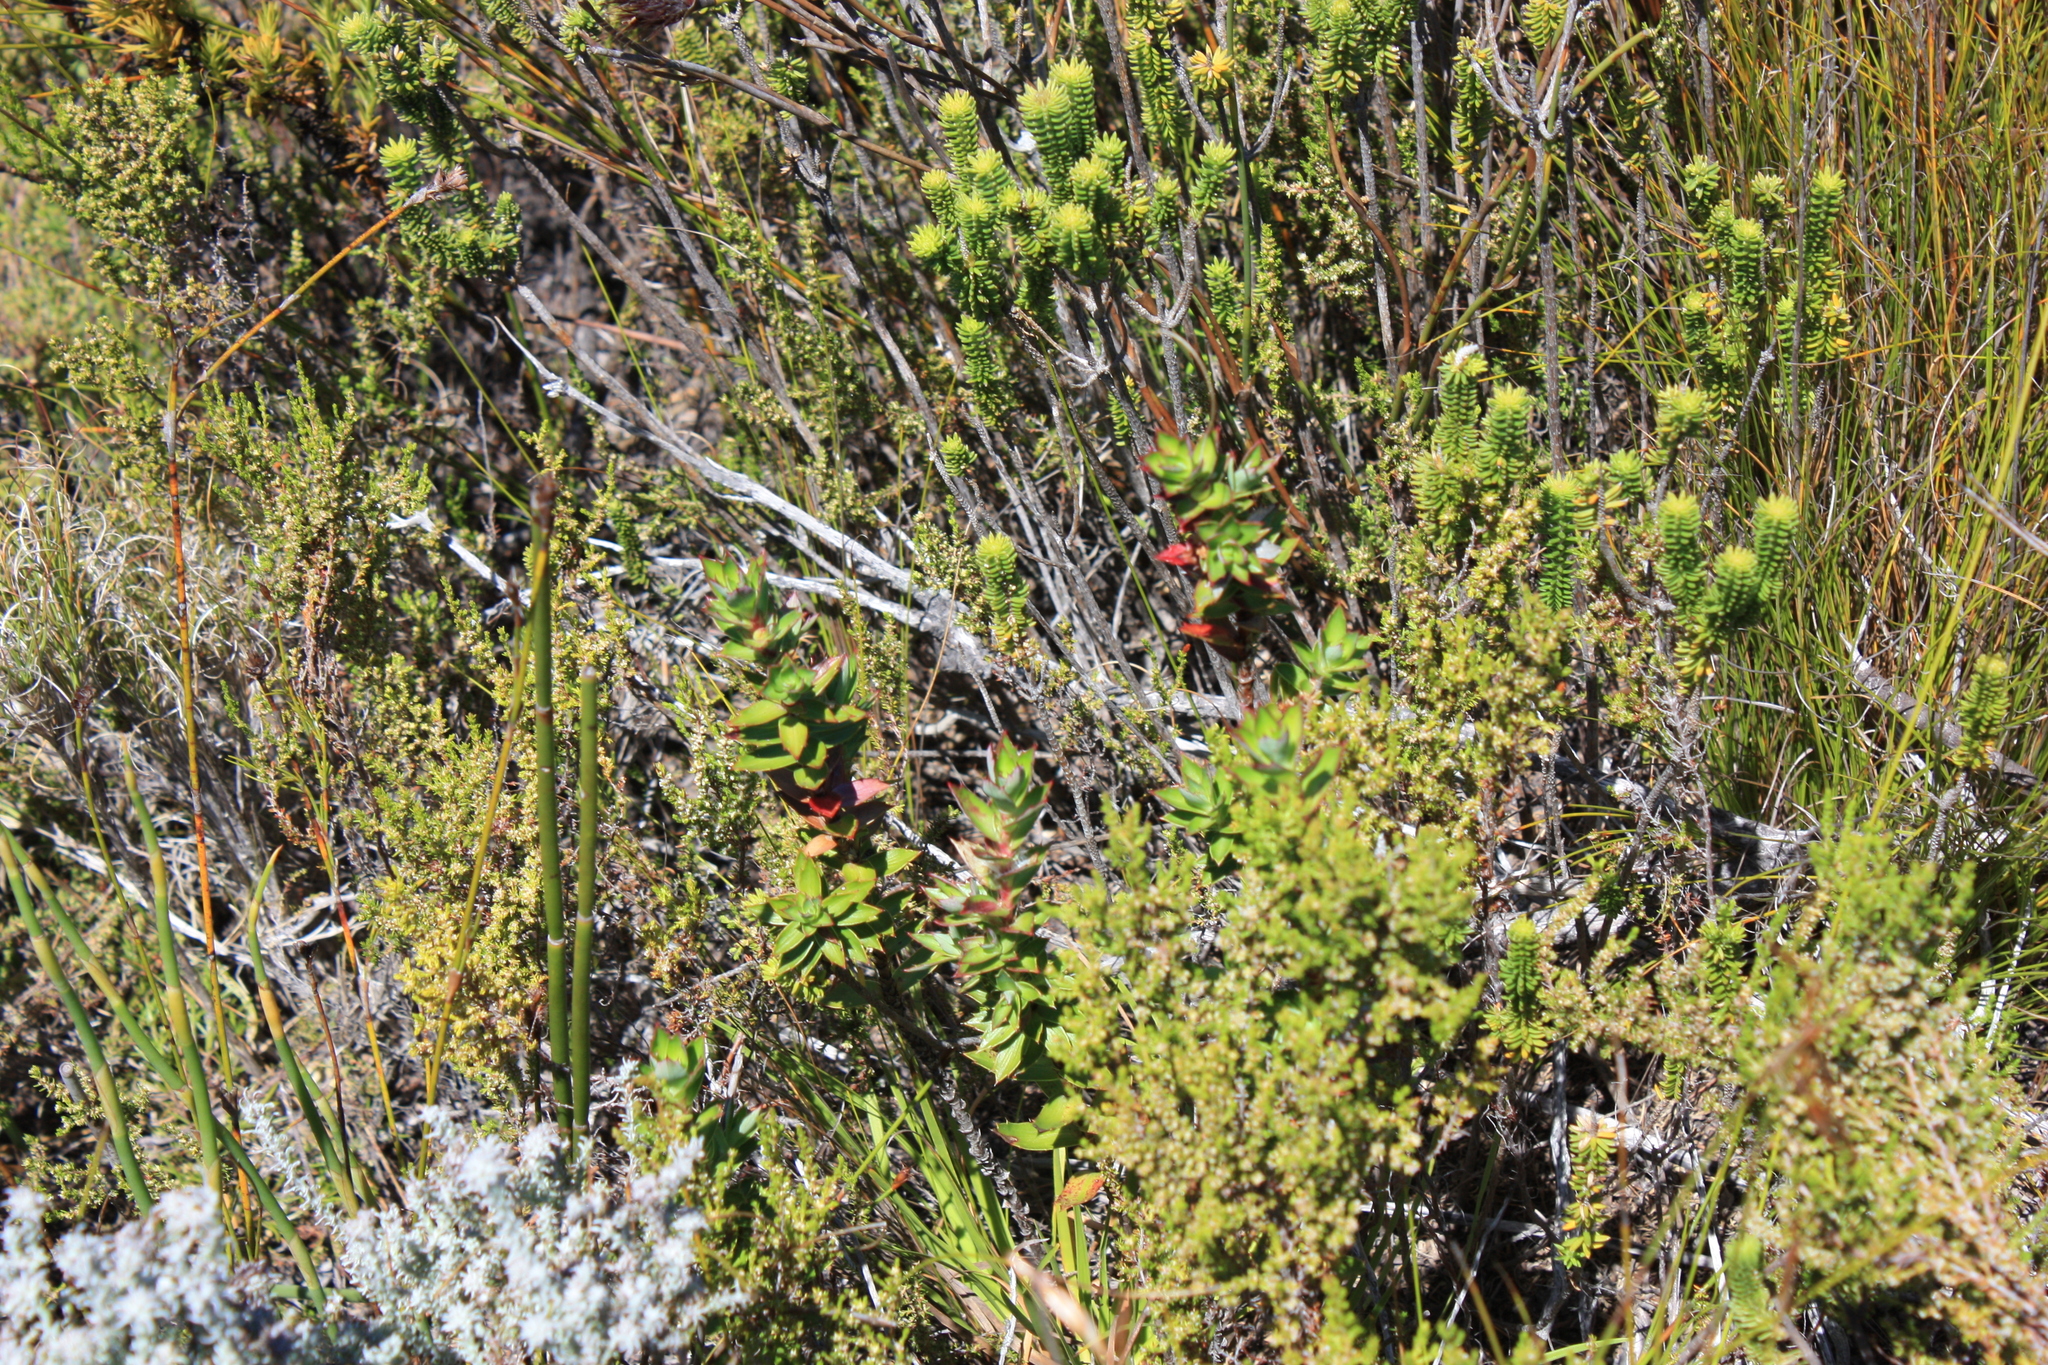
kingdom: Plantae
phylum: Tracheophyta
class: Magnoliopsida
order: Rosales
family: Rosaceae
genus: Cliffortia
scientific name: Cliffortia ilicifolia
